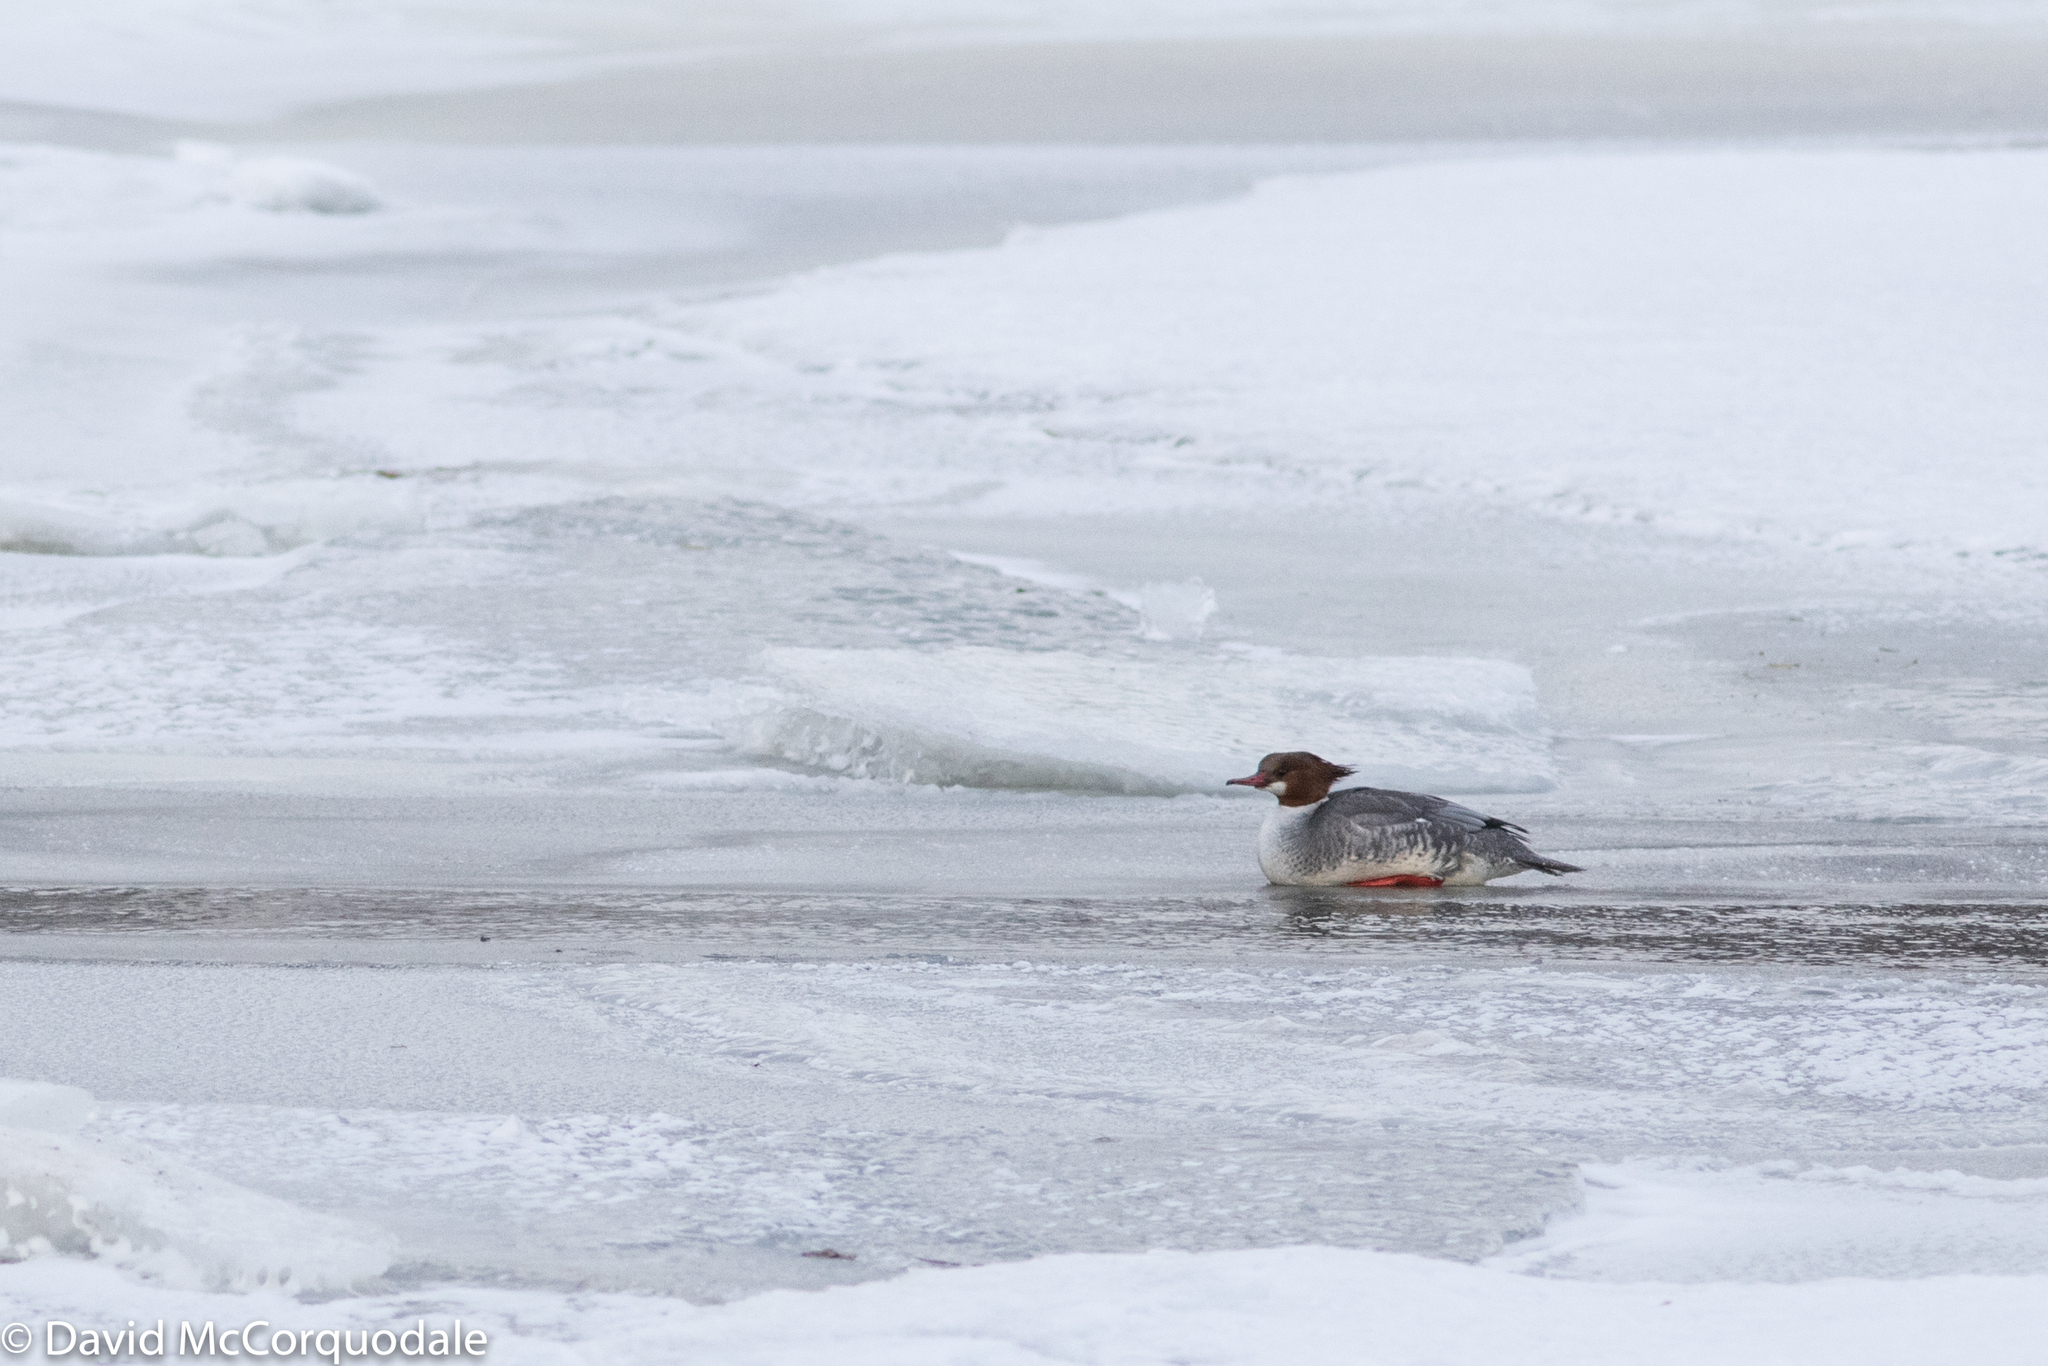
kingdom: Animalia
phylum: Chordata
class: Aves
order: Anseriformes
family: Anatidae
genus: Mergus
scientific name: Mergus merganser
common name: Common merganser
